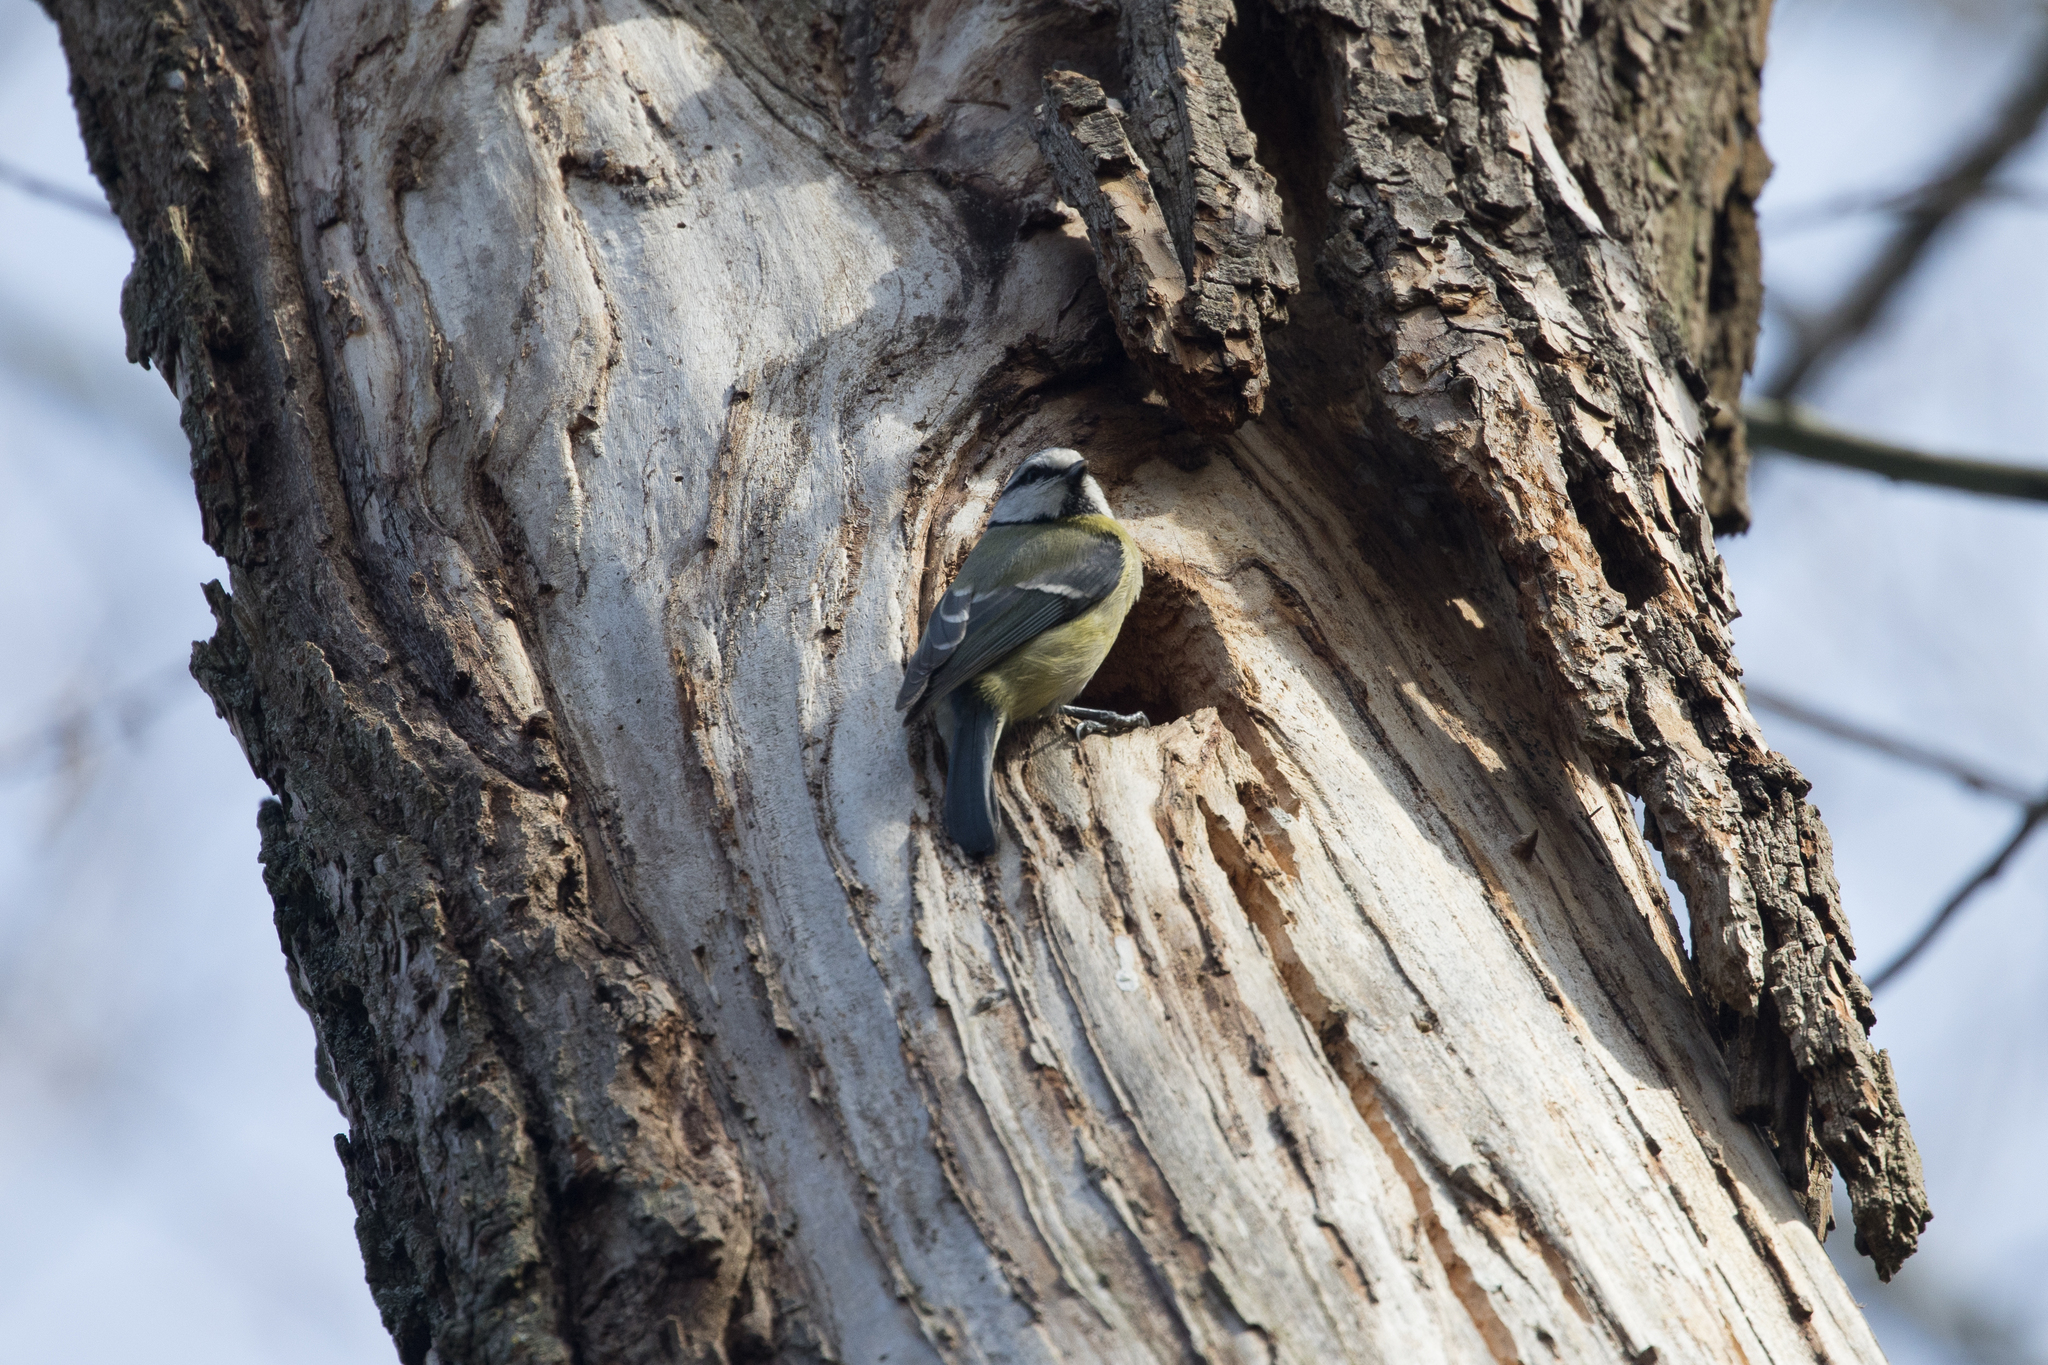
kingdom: Animalia
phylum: Chordata
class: Aves
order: Passeriformes
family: Paridae
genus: Cyanistes
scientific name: Cyanistes caeruleus
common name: Eurasian blue tit
